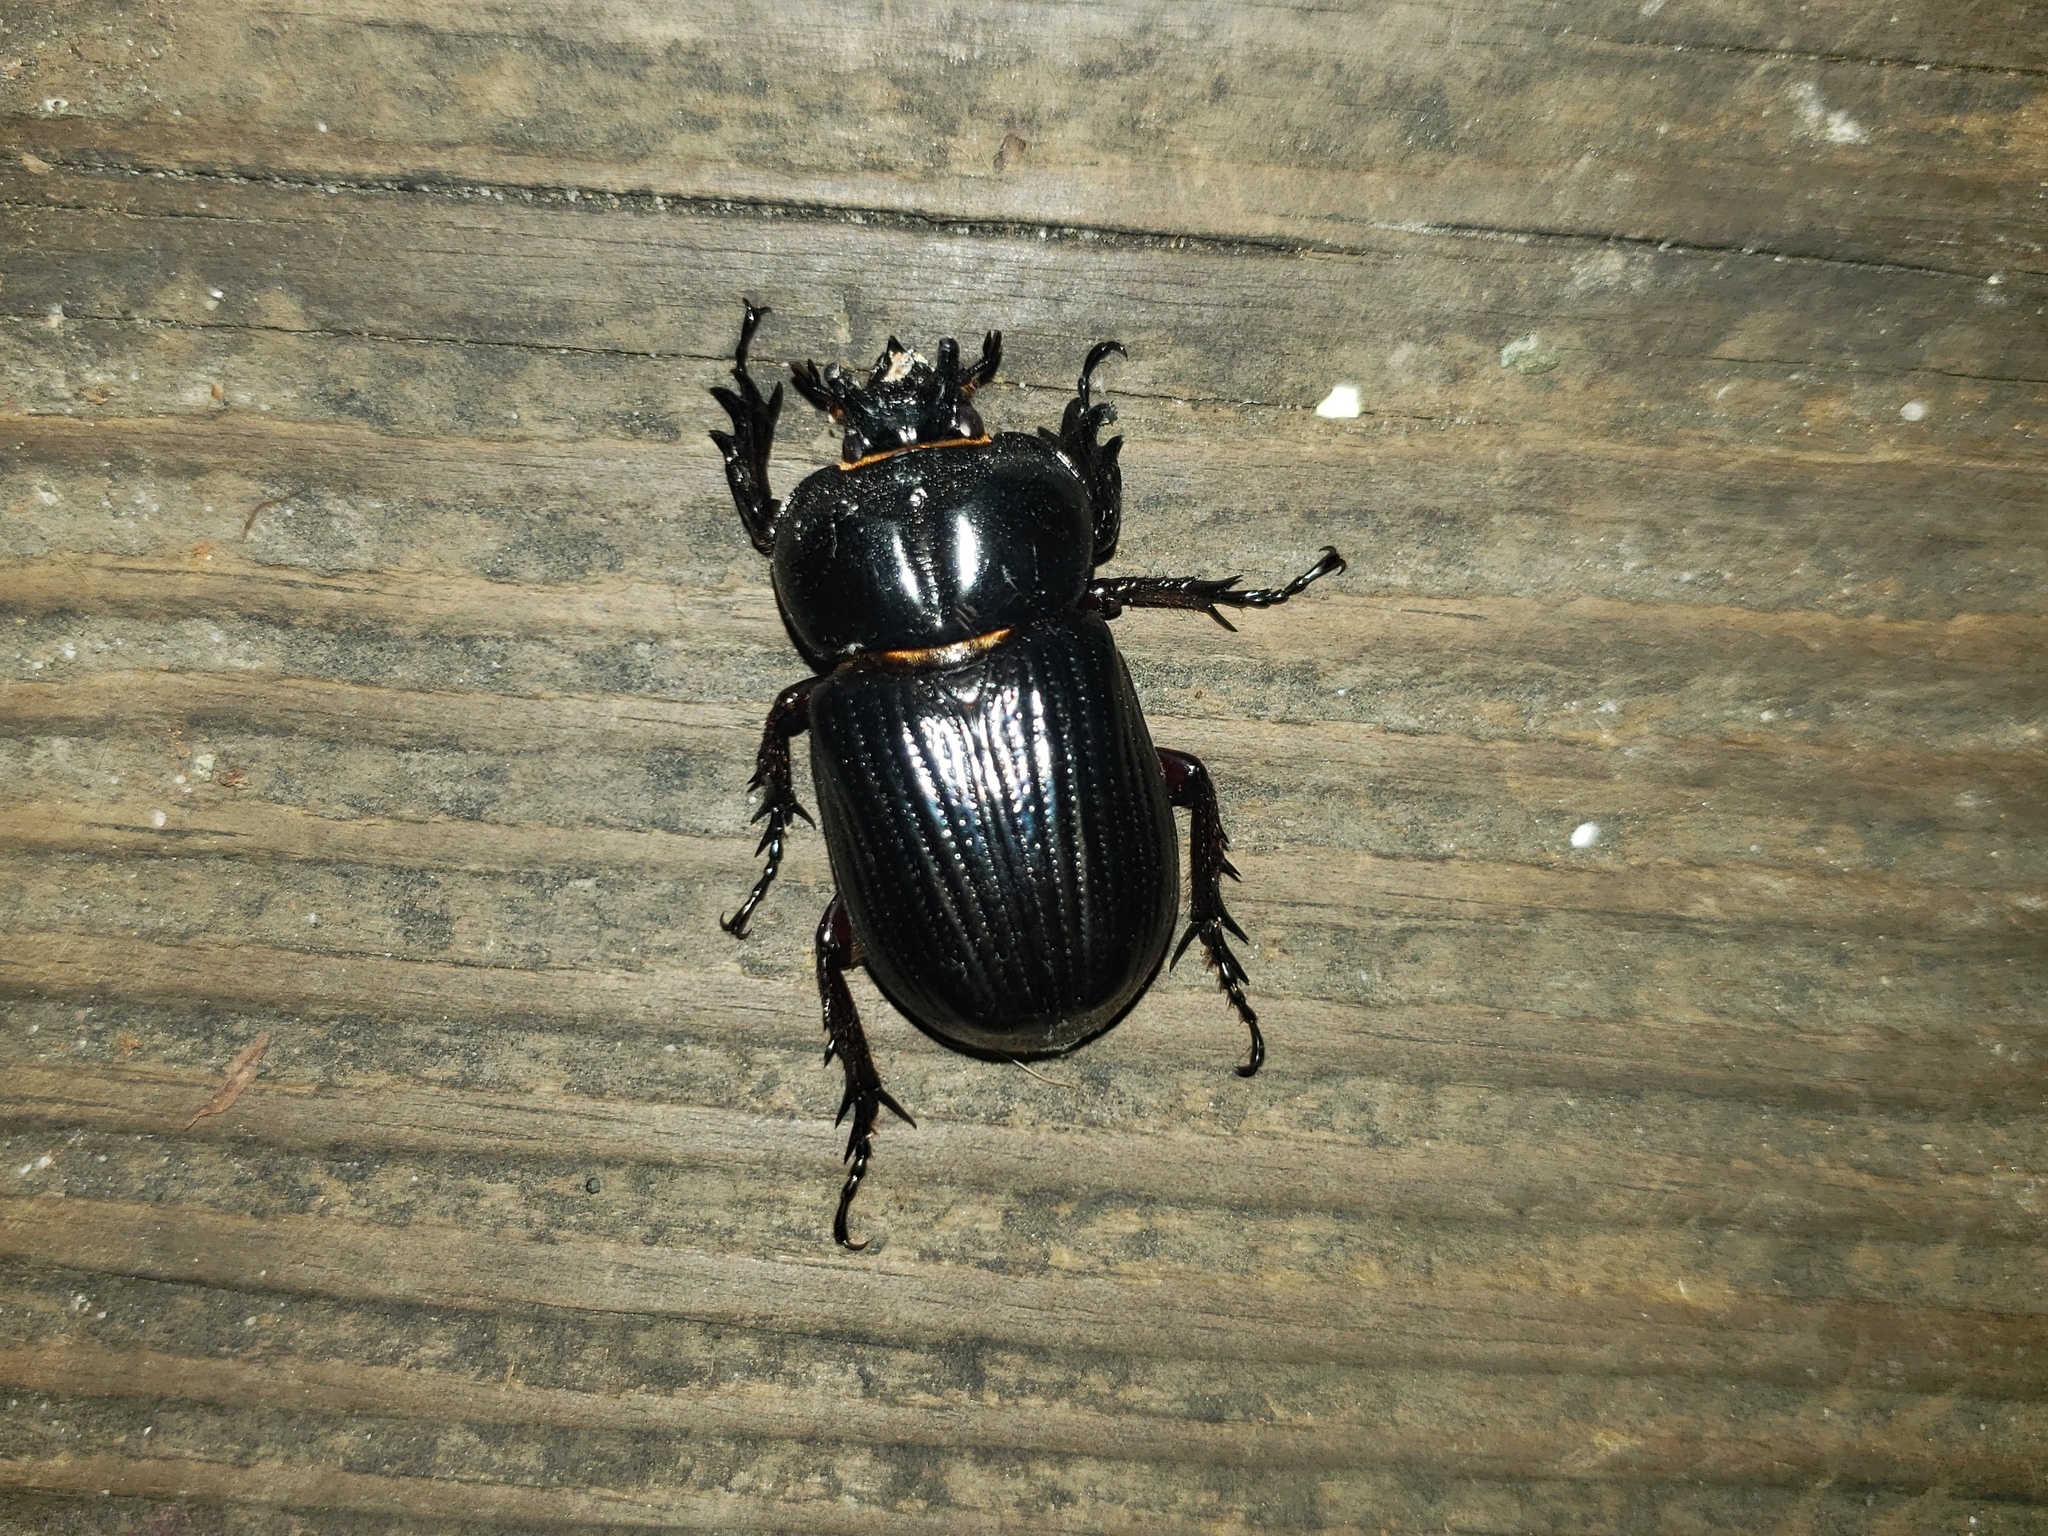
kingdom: Animalia
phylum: Arthropoda
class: Insecta
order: Coleoptera
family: Scarabaeidae
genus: Phileurus
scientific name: Phileurus truncatus
